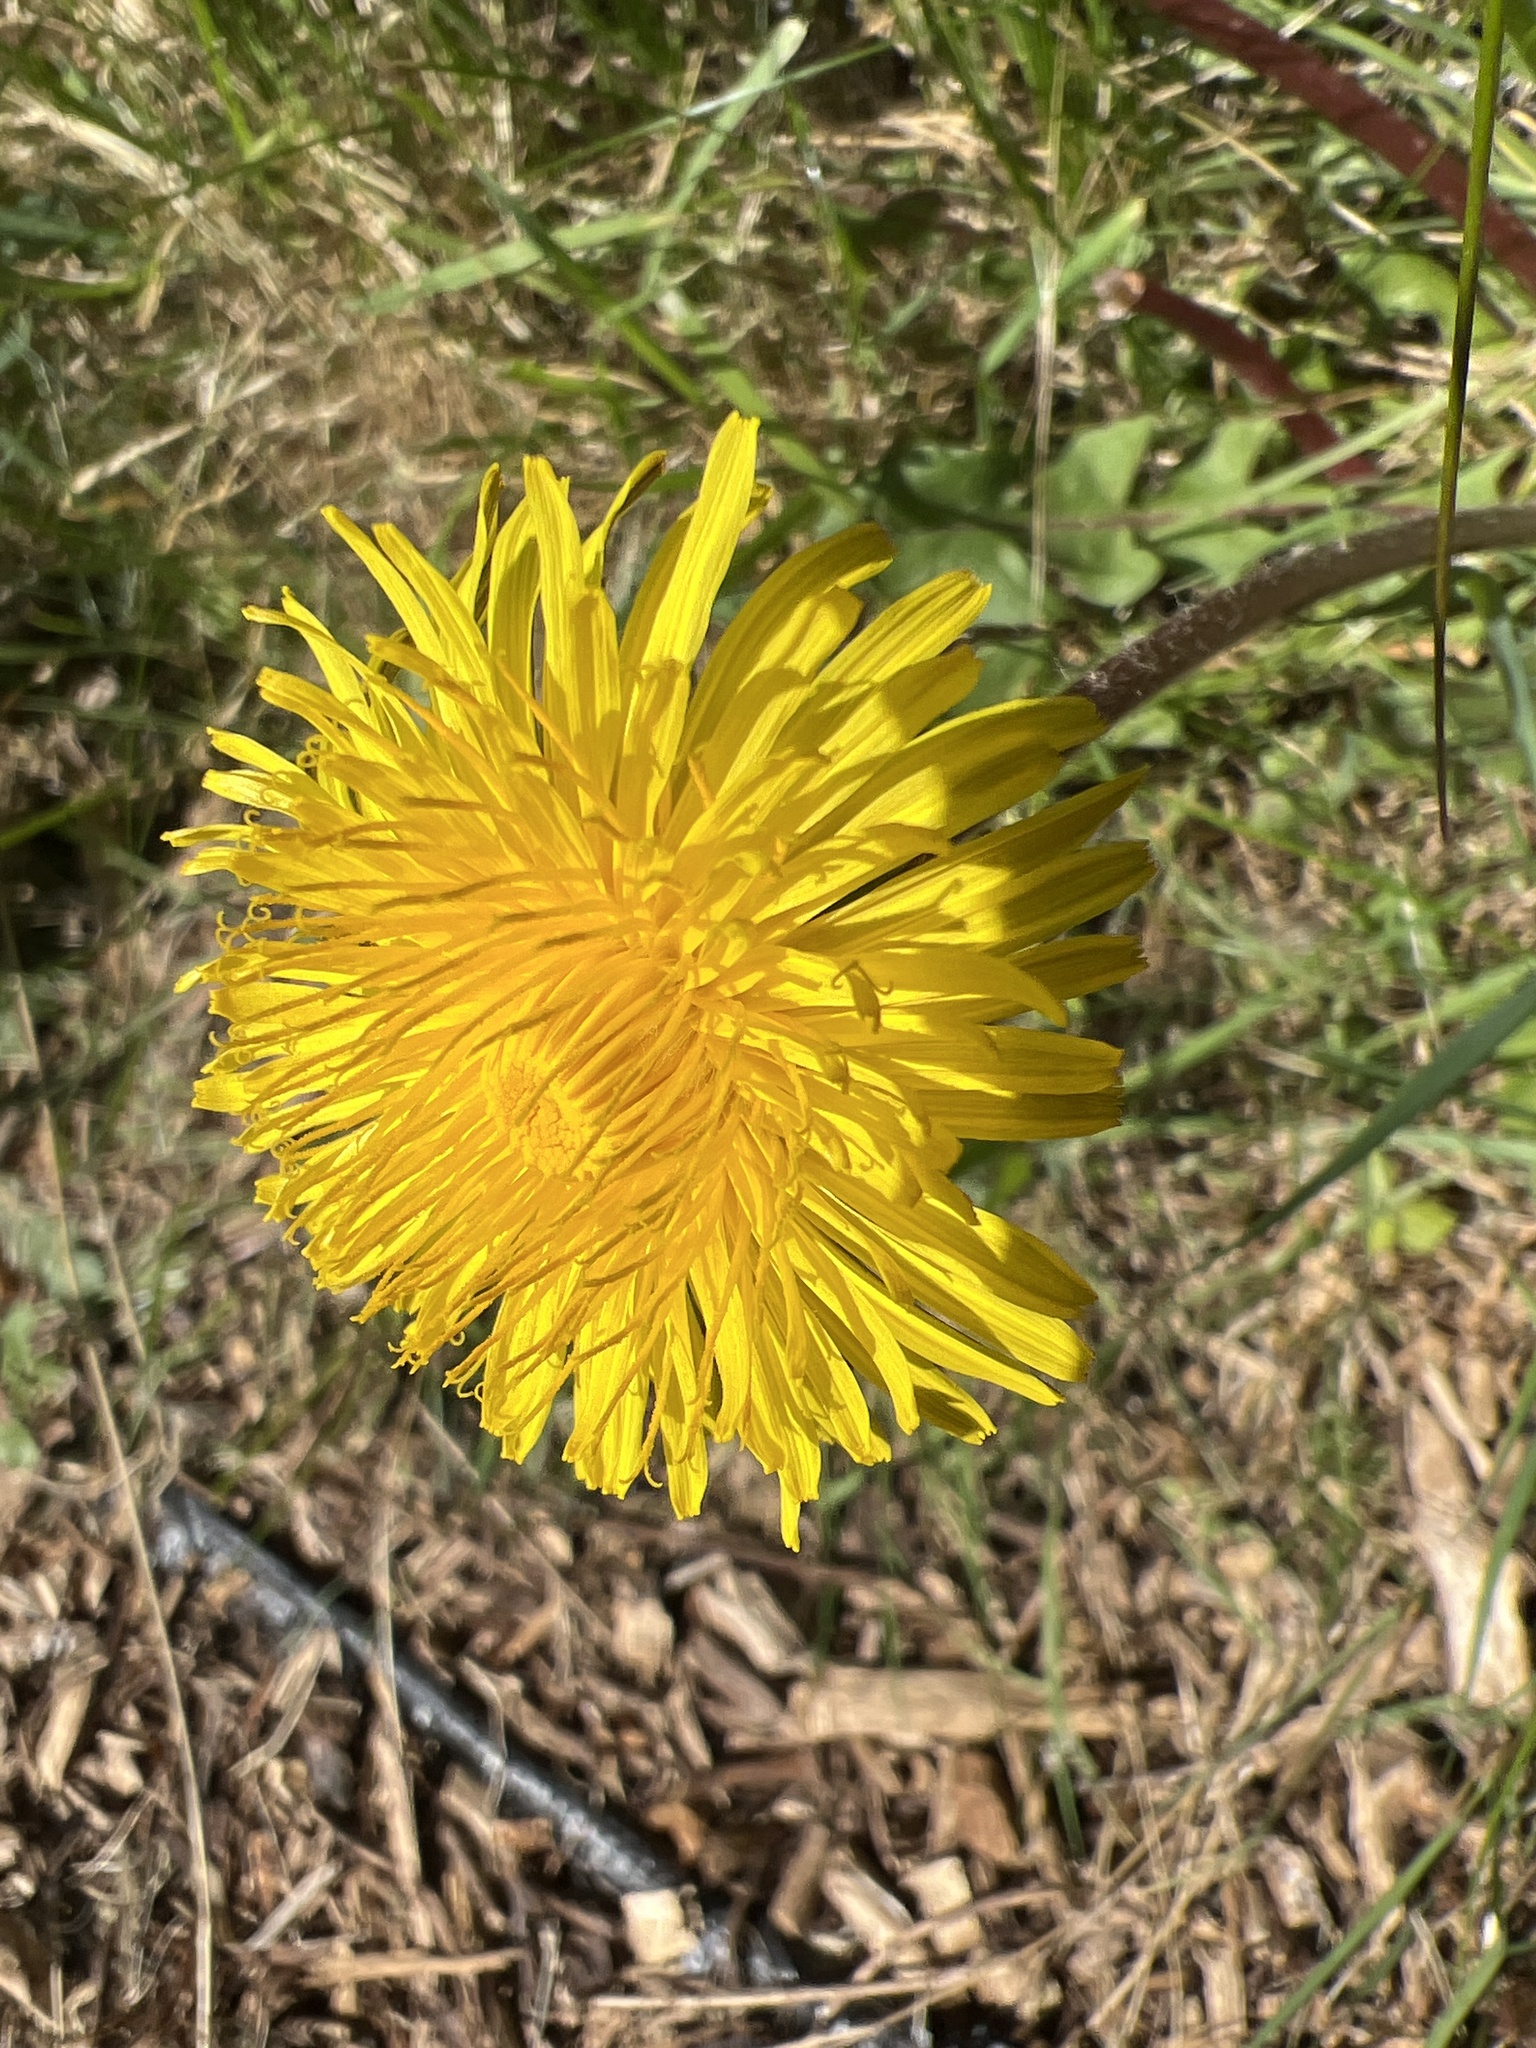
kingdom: Plantae
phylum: Tracheophyta
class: Magnoliopsida
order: Asterales
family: Asteraceae
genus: Taraxacum
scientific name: Taraxacum officinale
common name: Common dandelion
